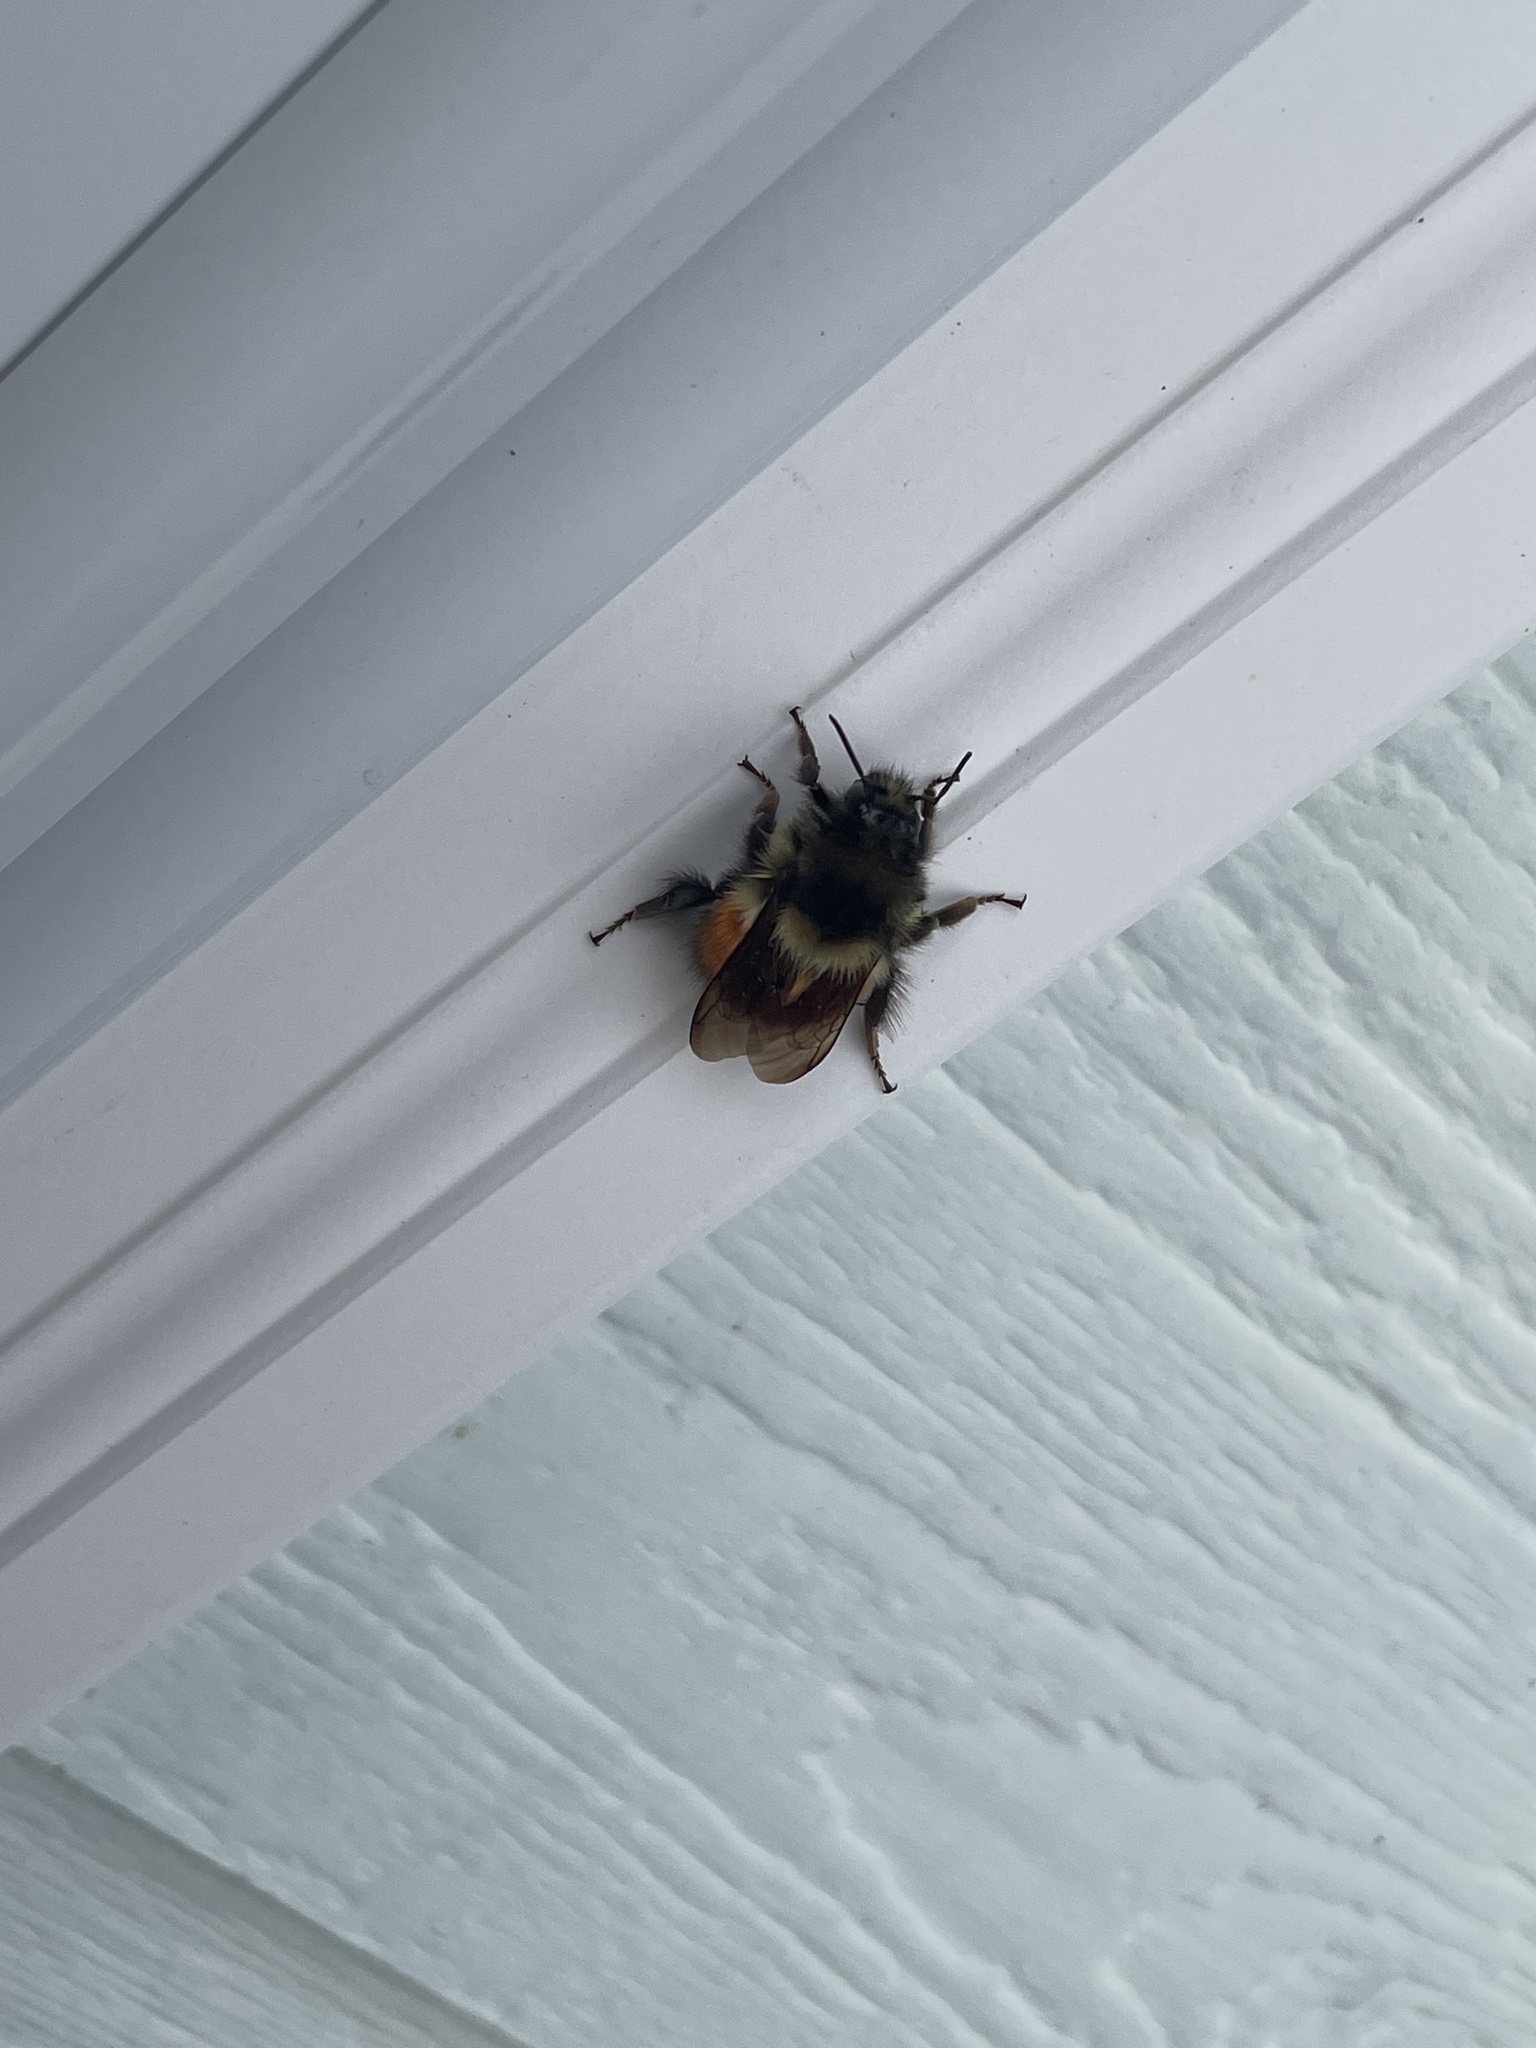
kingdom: Animalia
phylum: Arthropoda
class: Insecta
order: Hymenoptera
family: Apidae
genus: Bombus
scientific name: Bombus melanopygus
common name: Black tail bumble bee
